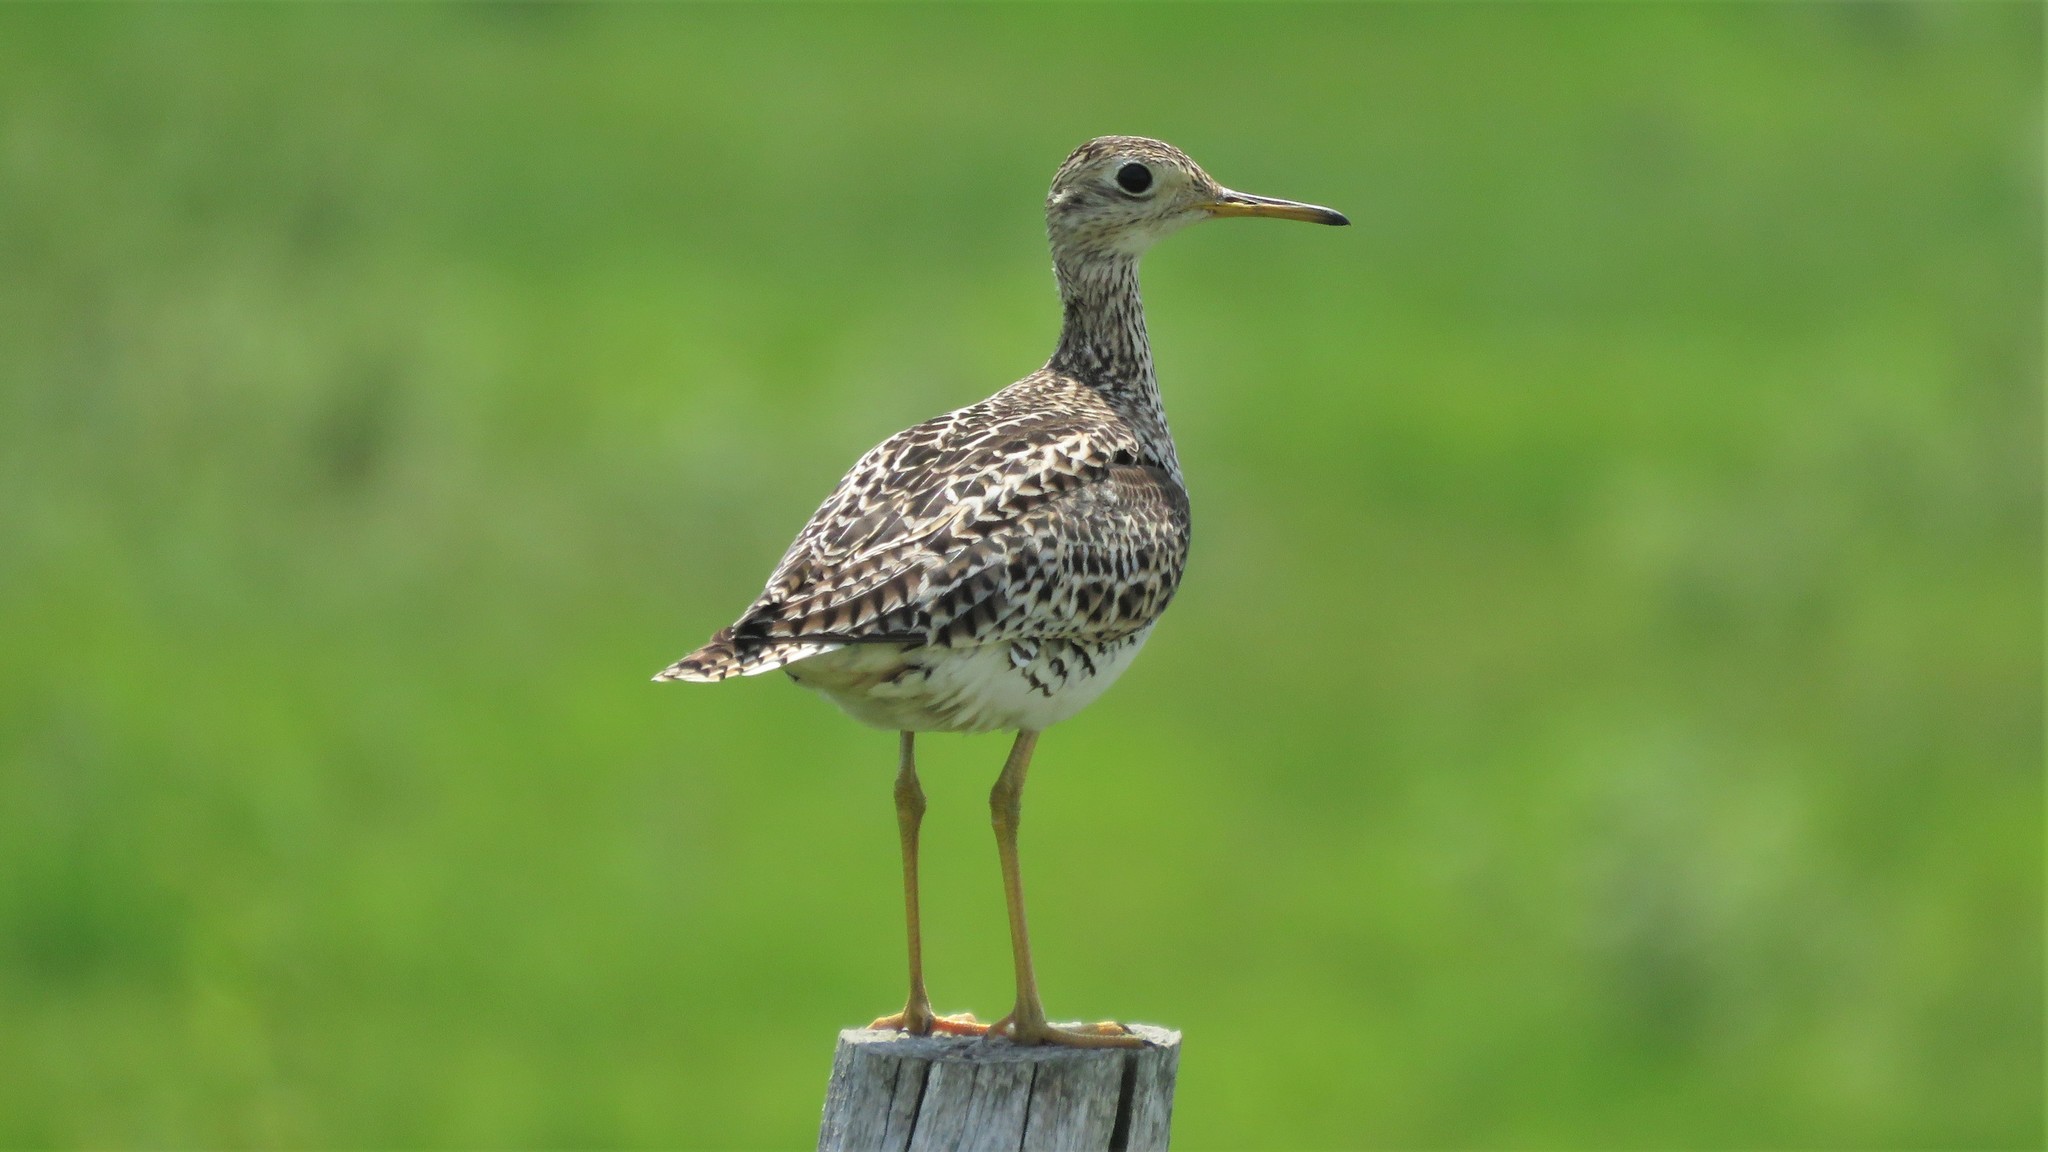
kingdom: Animalia
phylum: Chordata
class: Aves
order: Charadriiformes
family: Scolopacidae
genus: Bartramia
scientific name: Bartramia longicauda
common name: Upland sandpiper
